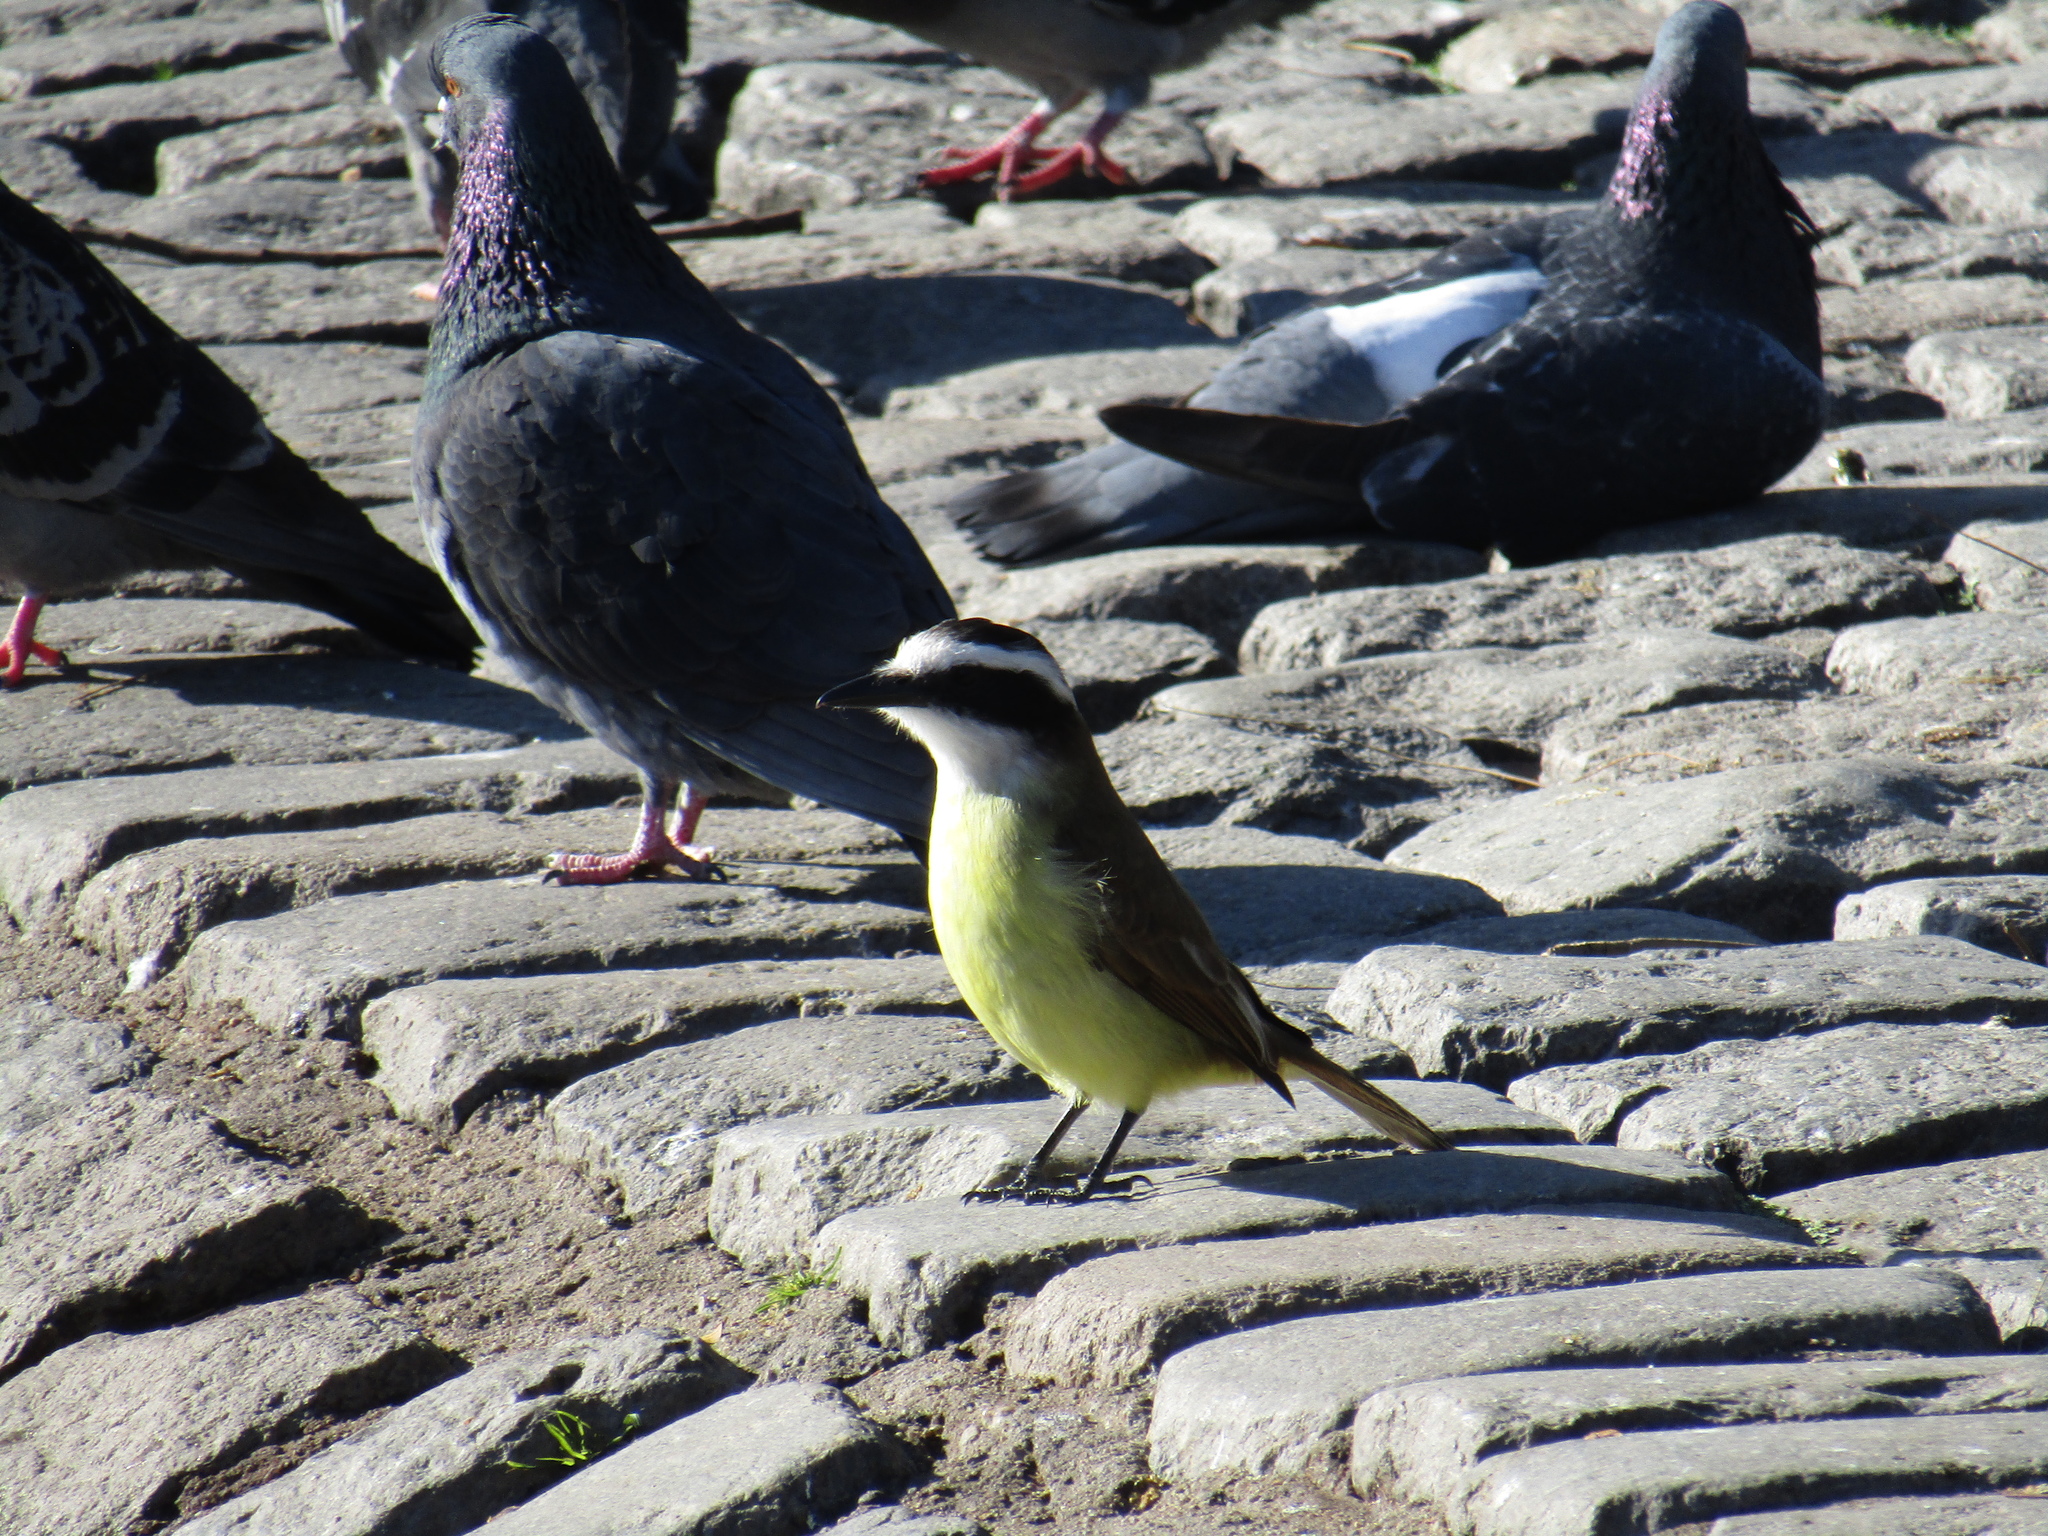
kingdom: Animalia
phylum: Chordata
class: Aves
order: Passeriformes
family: Tyrannidae
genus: Pitangus
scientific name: Pitangus sulphuratus
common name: Great kiskadee
